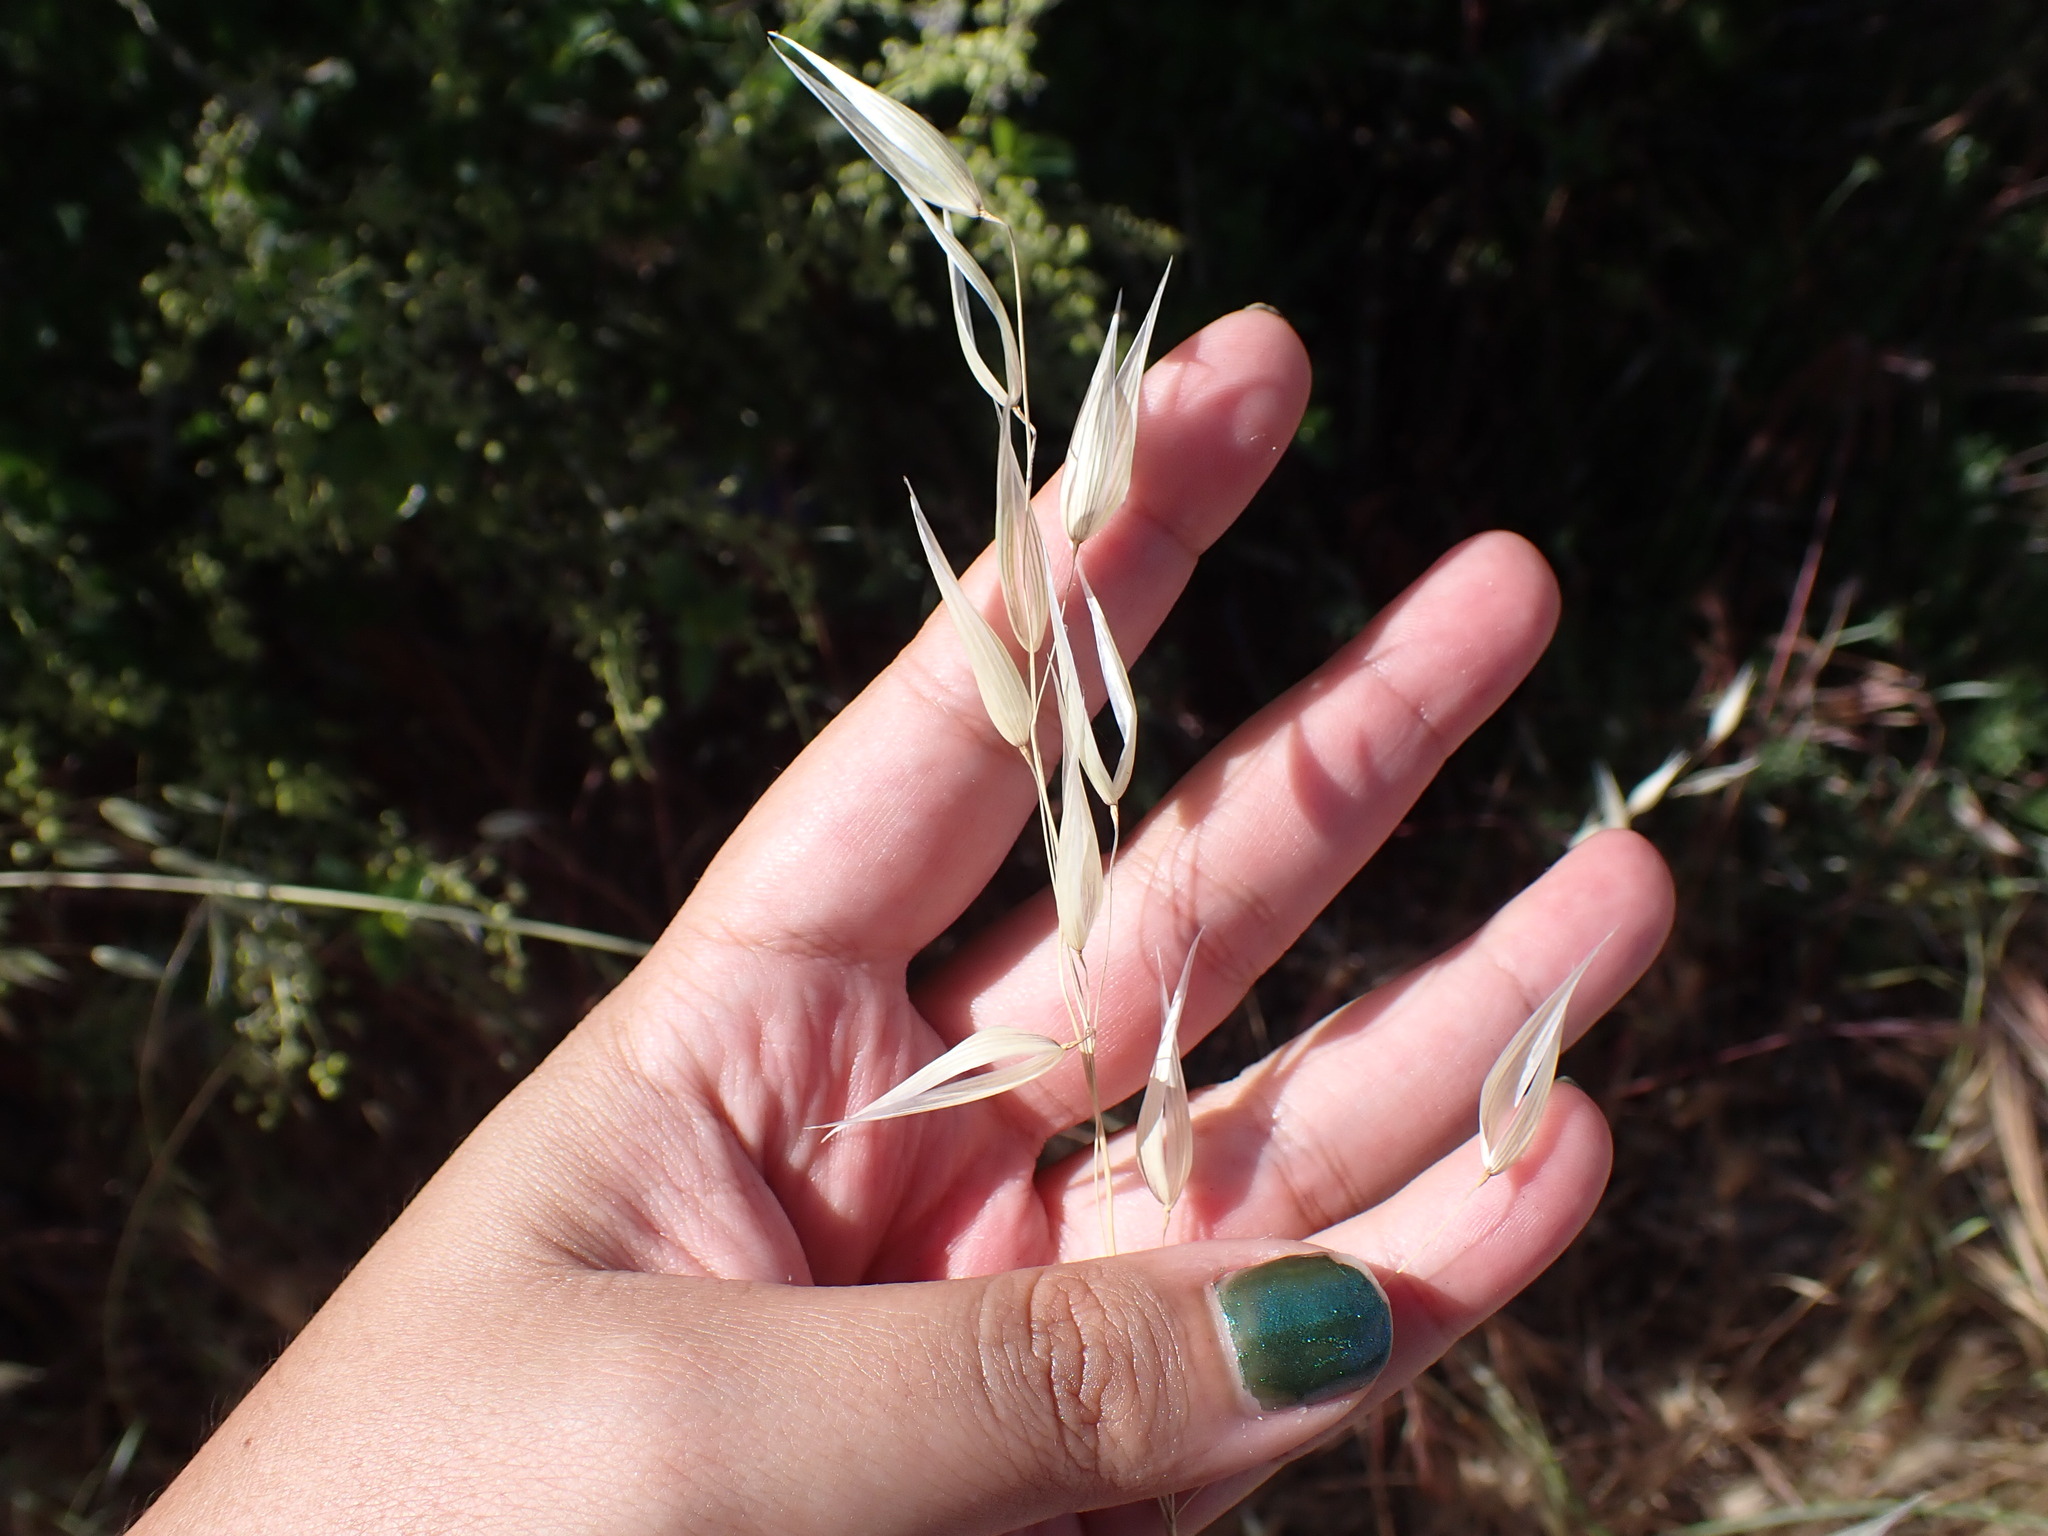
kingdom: Plantae
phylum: Tracheophyta
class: Liliopsida
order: Poales
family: Poaceae
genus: Avena
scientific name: Avena barbata
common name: Slender oat
